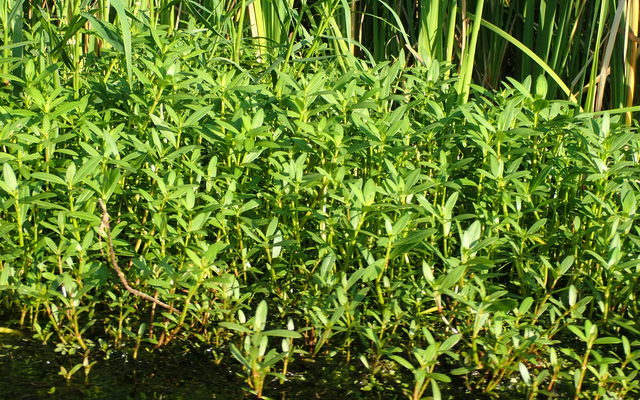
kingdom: Plantae
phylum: Tracheophyta
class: Magnoliopsida
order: Caryophyllales
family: Amaranthaceae
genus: Alternanthera
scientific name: Alternanthera philoxeroides
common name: Alligatorweed
